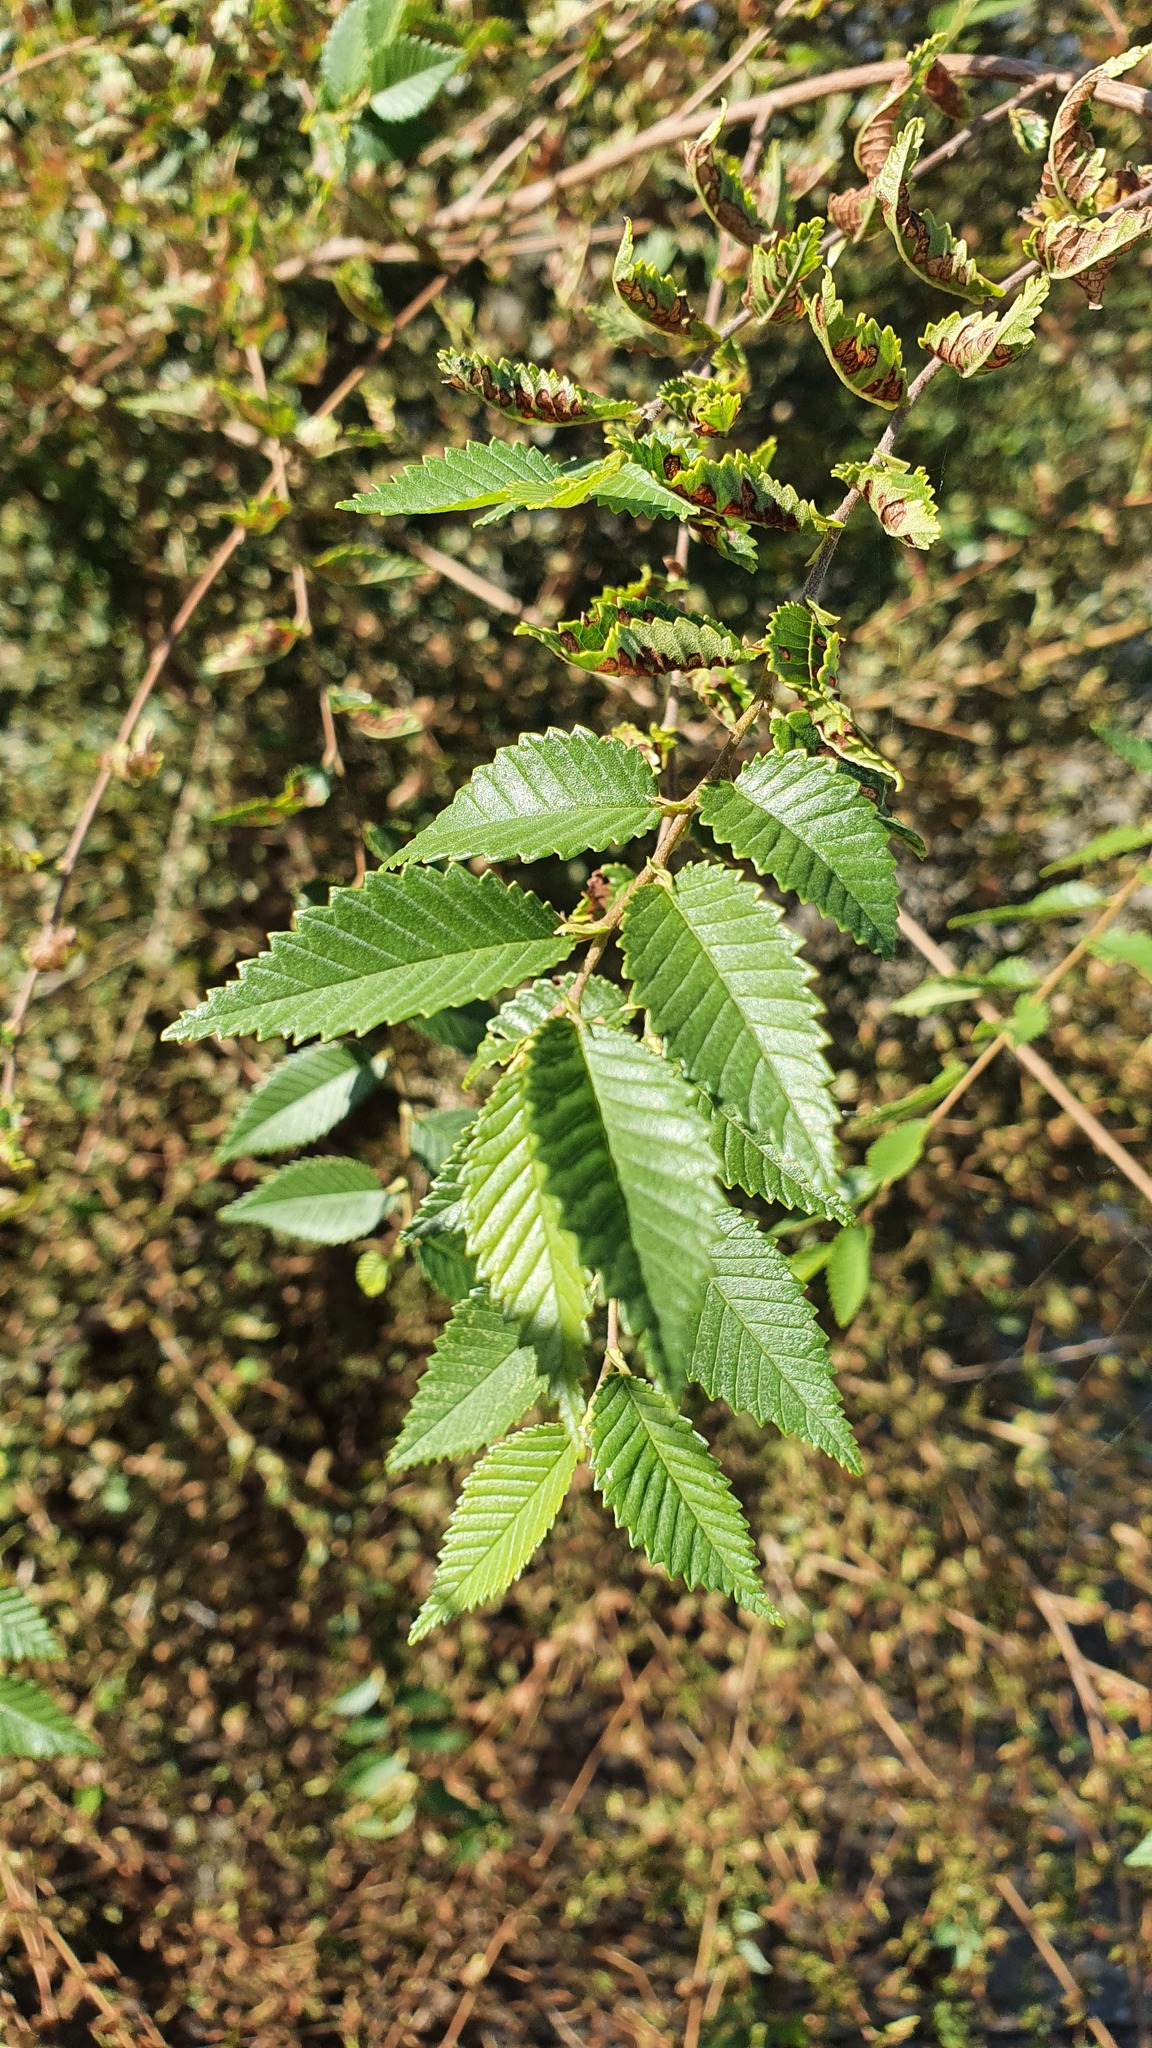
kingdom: Plantae
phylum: Tracheophyta
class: Magnoliopsida
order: Rosales
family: Ulmaceae
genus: Ulmus
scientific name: Ulmus pumila
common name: Siberian elm
